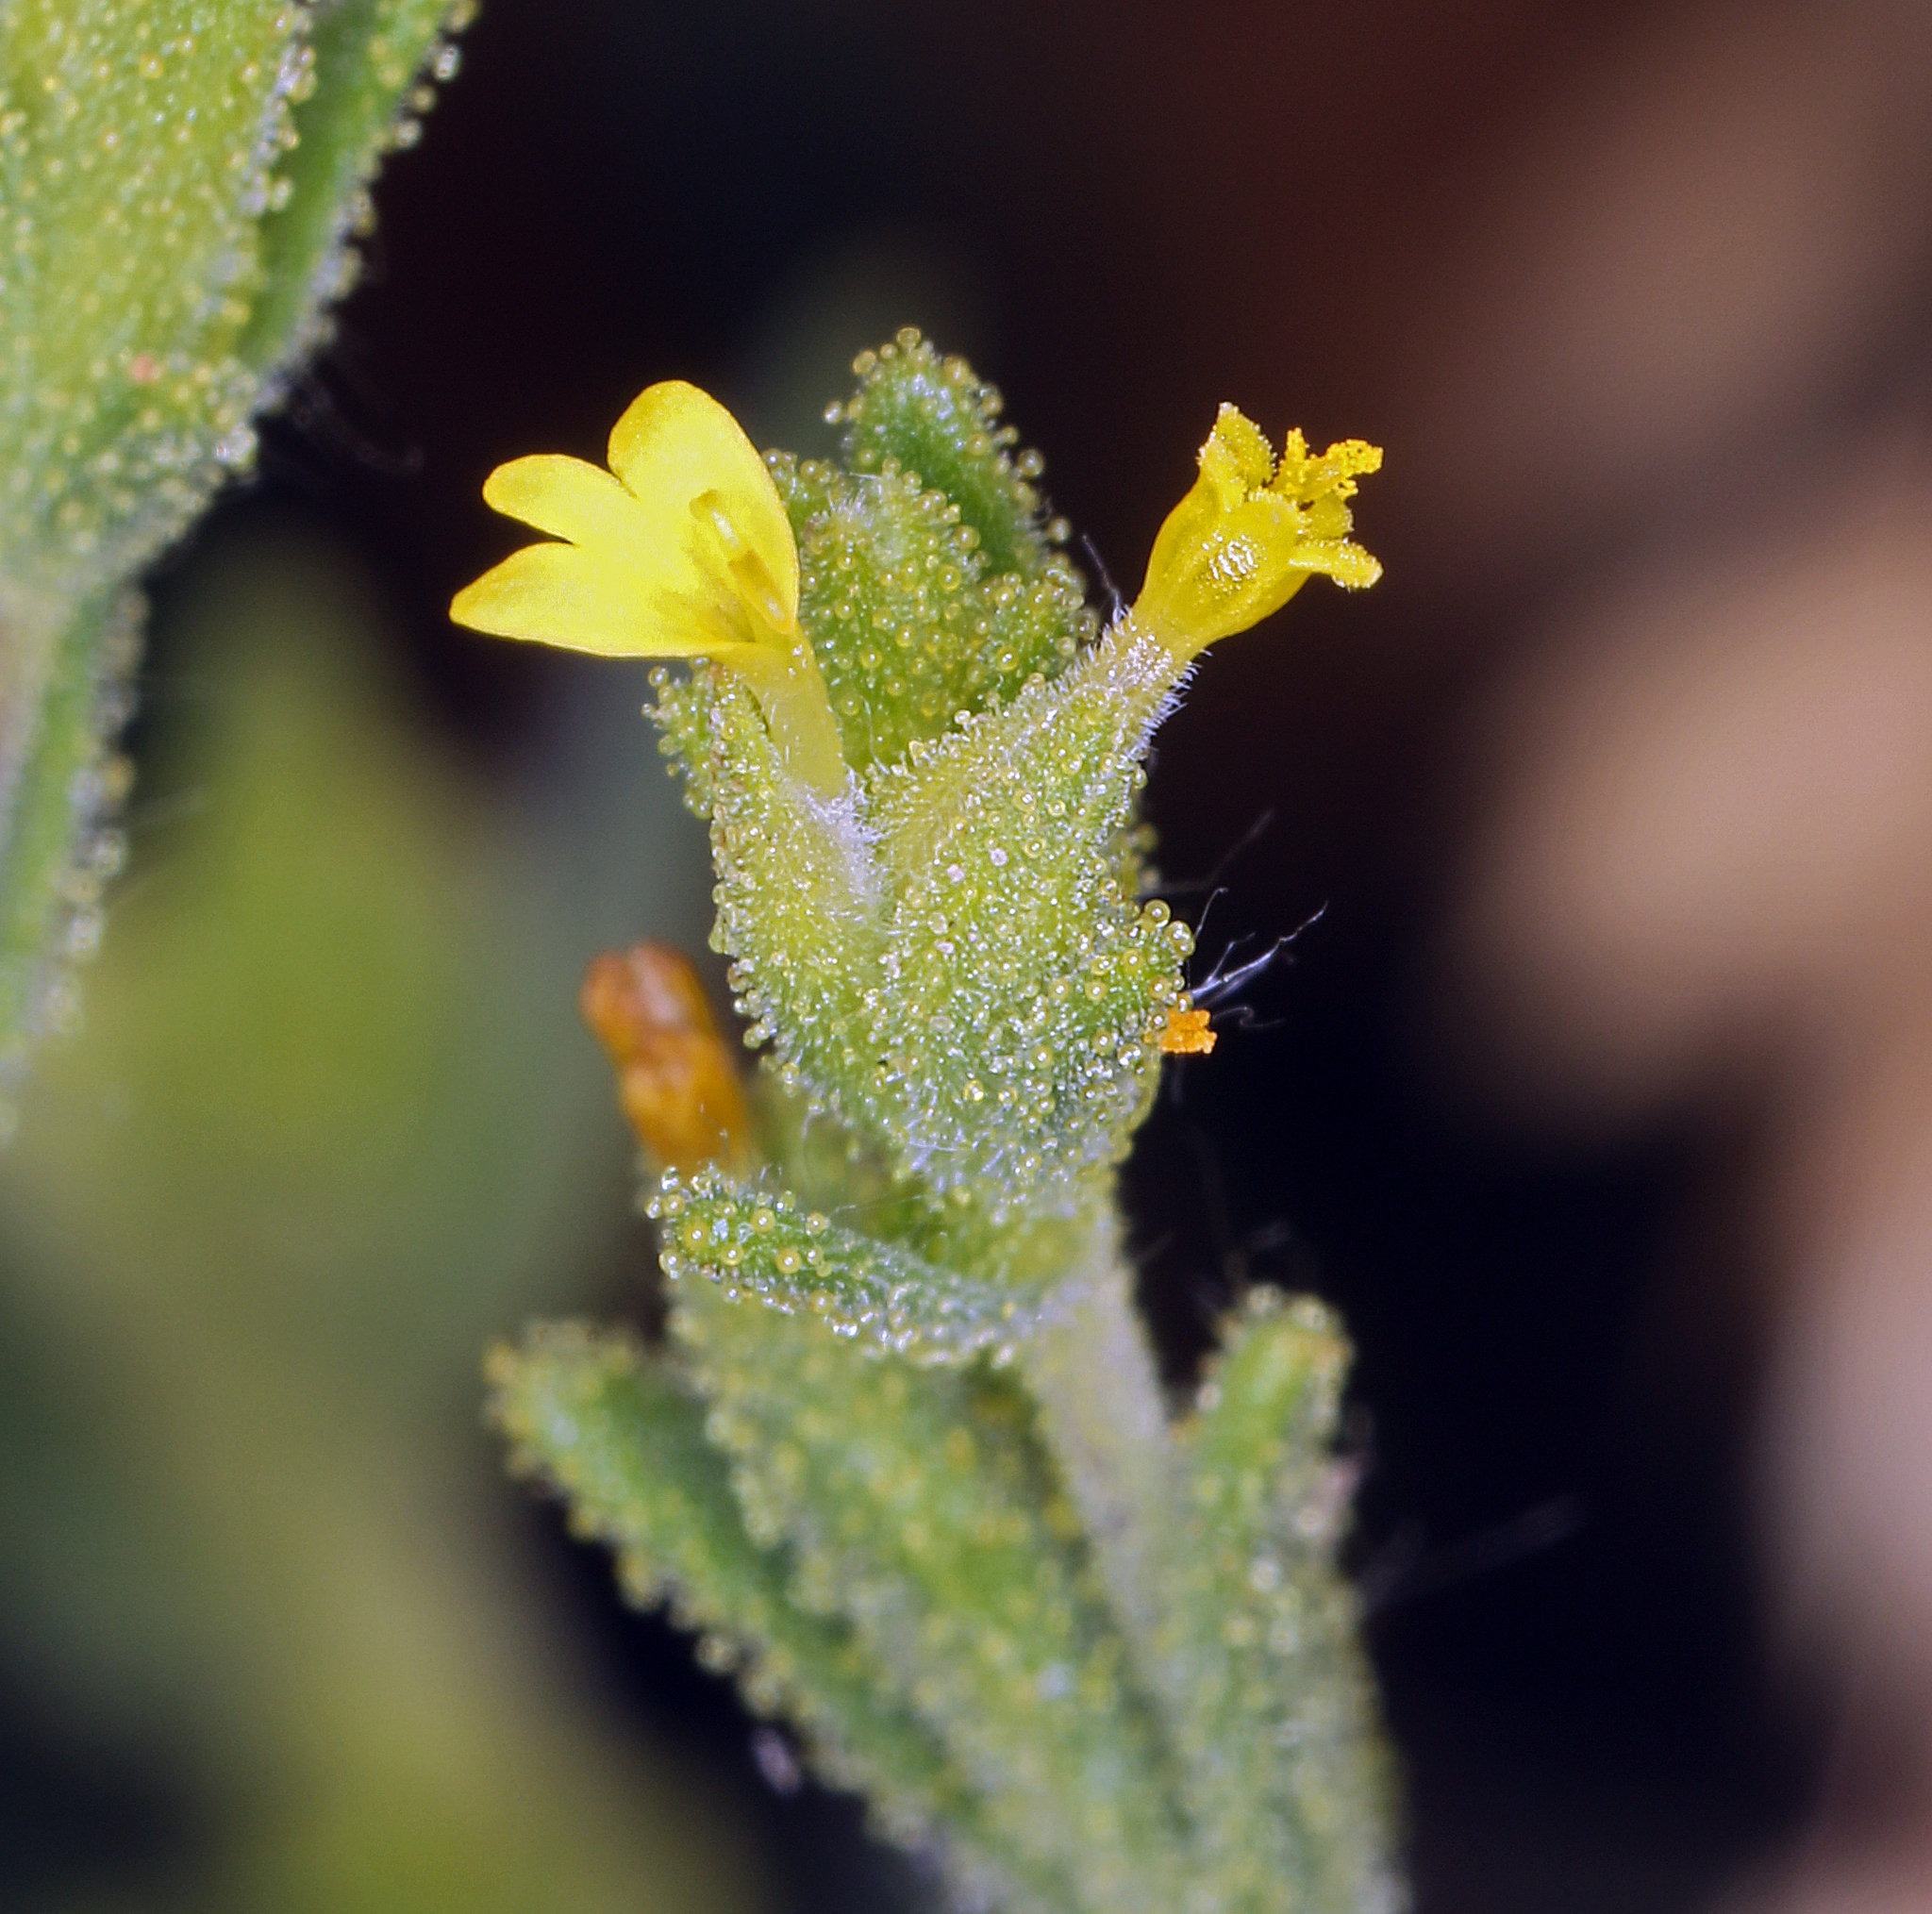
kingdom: Plantae
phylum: Tracheophyta
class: Magnoliopsida
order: Asterales
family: Asteraceae
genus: Madia
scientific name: Madia glomerata
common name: Mountain tarweed
